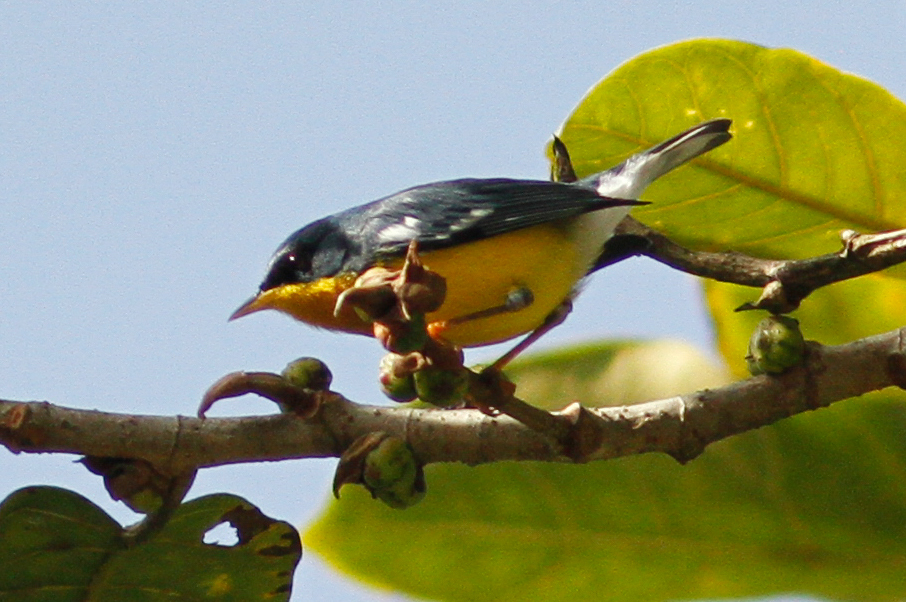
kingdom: Animalia
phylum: Chordata
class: Aves
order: Passeriformes
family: Parulidae
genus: Setophaga
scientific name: Setophaga pitiayumi
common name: Tropical parula
